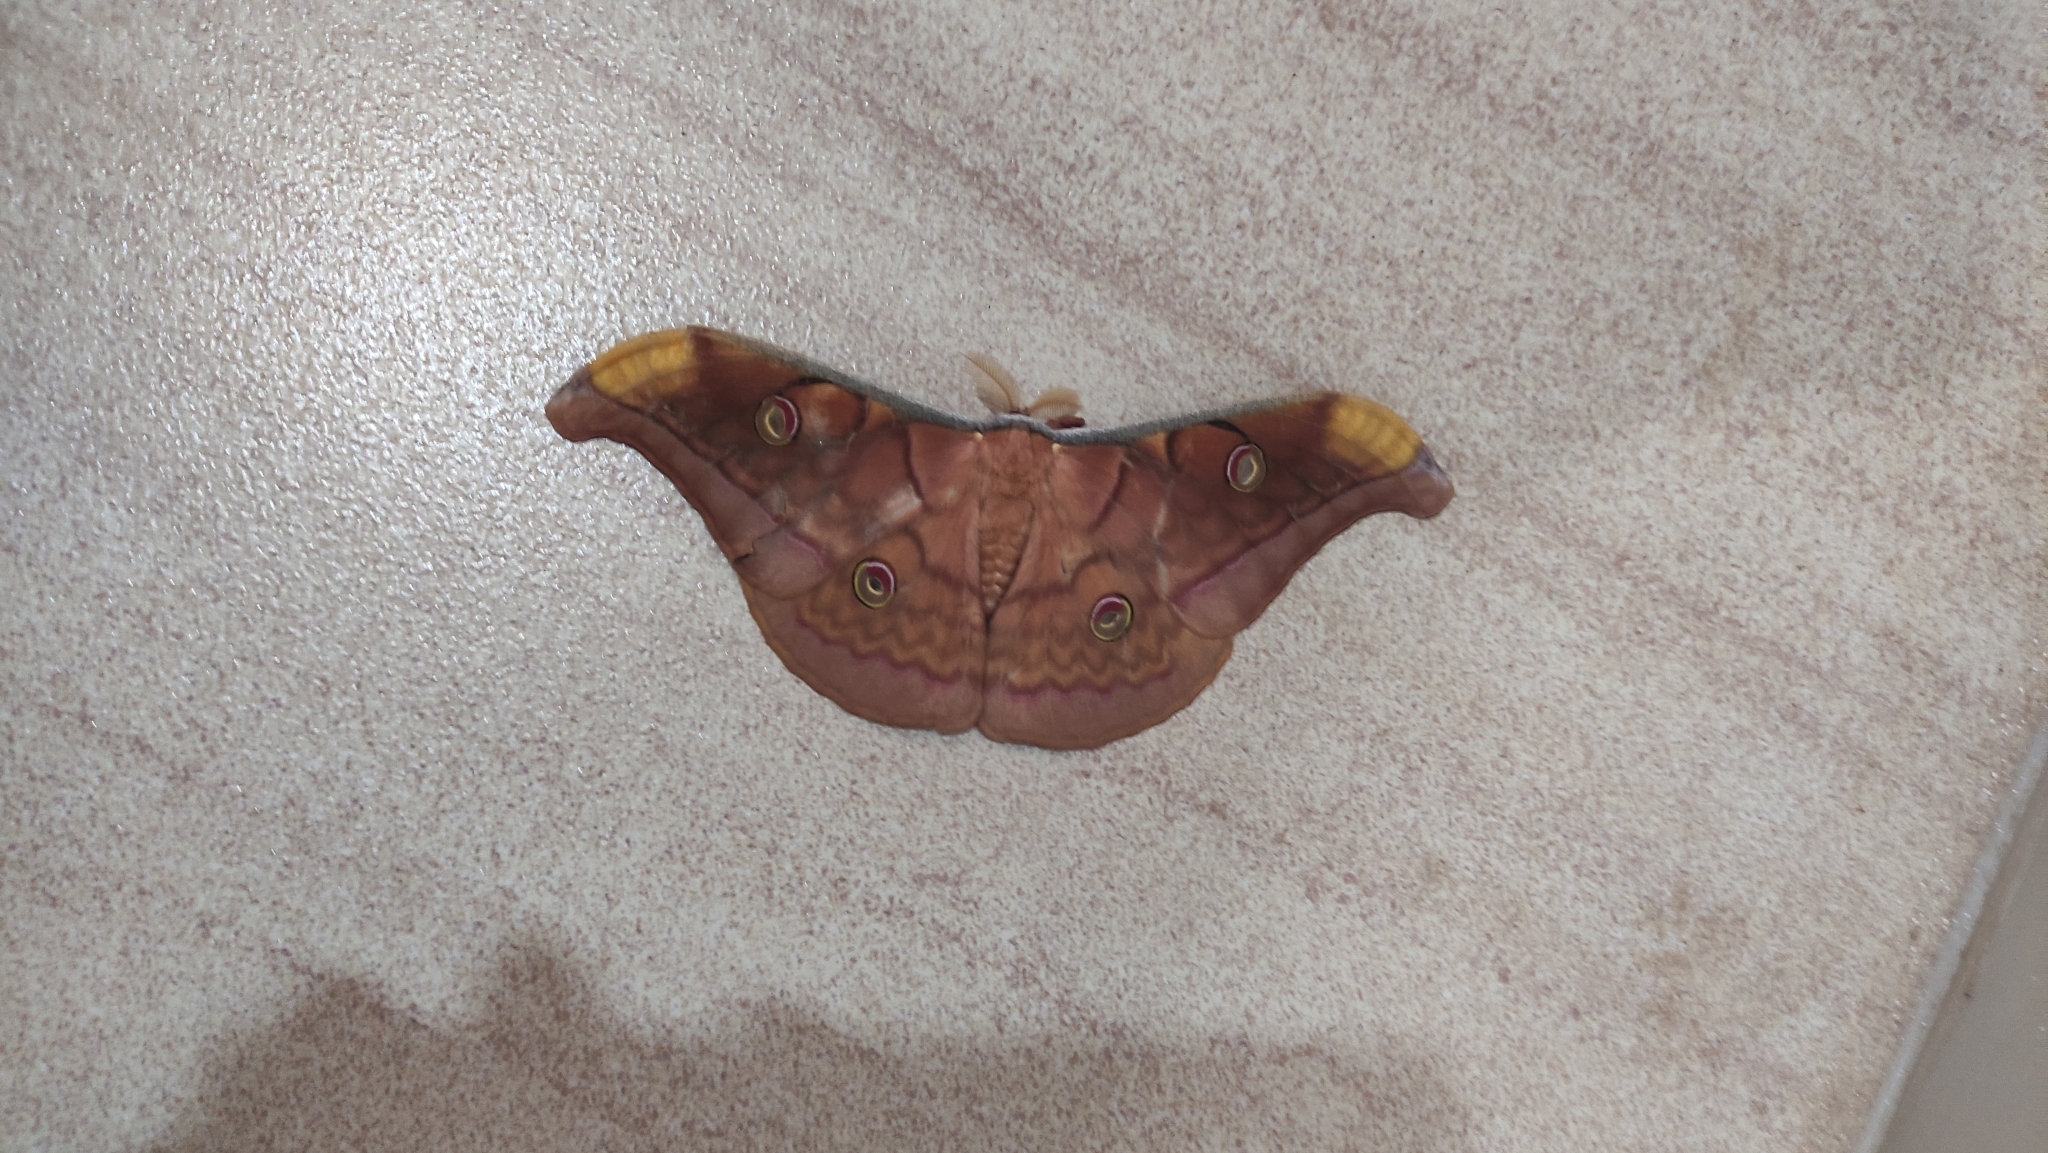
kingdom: Animalia
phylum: Arthropoda
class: Insecta
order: Lepidoptera
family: Saturniidae
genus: Antheraea
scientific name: Antheraea frithi
